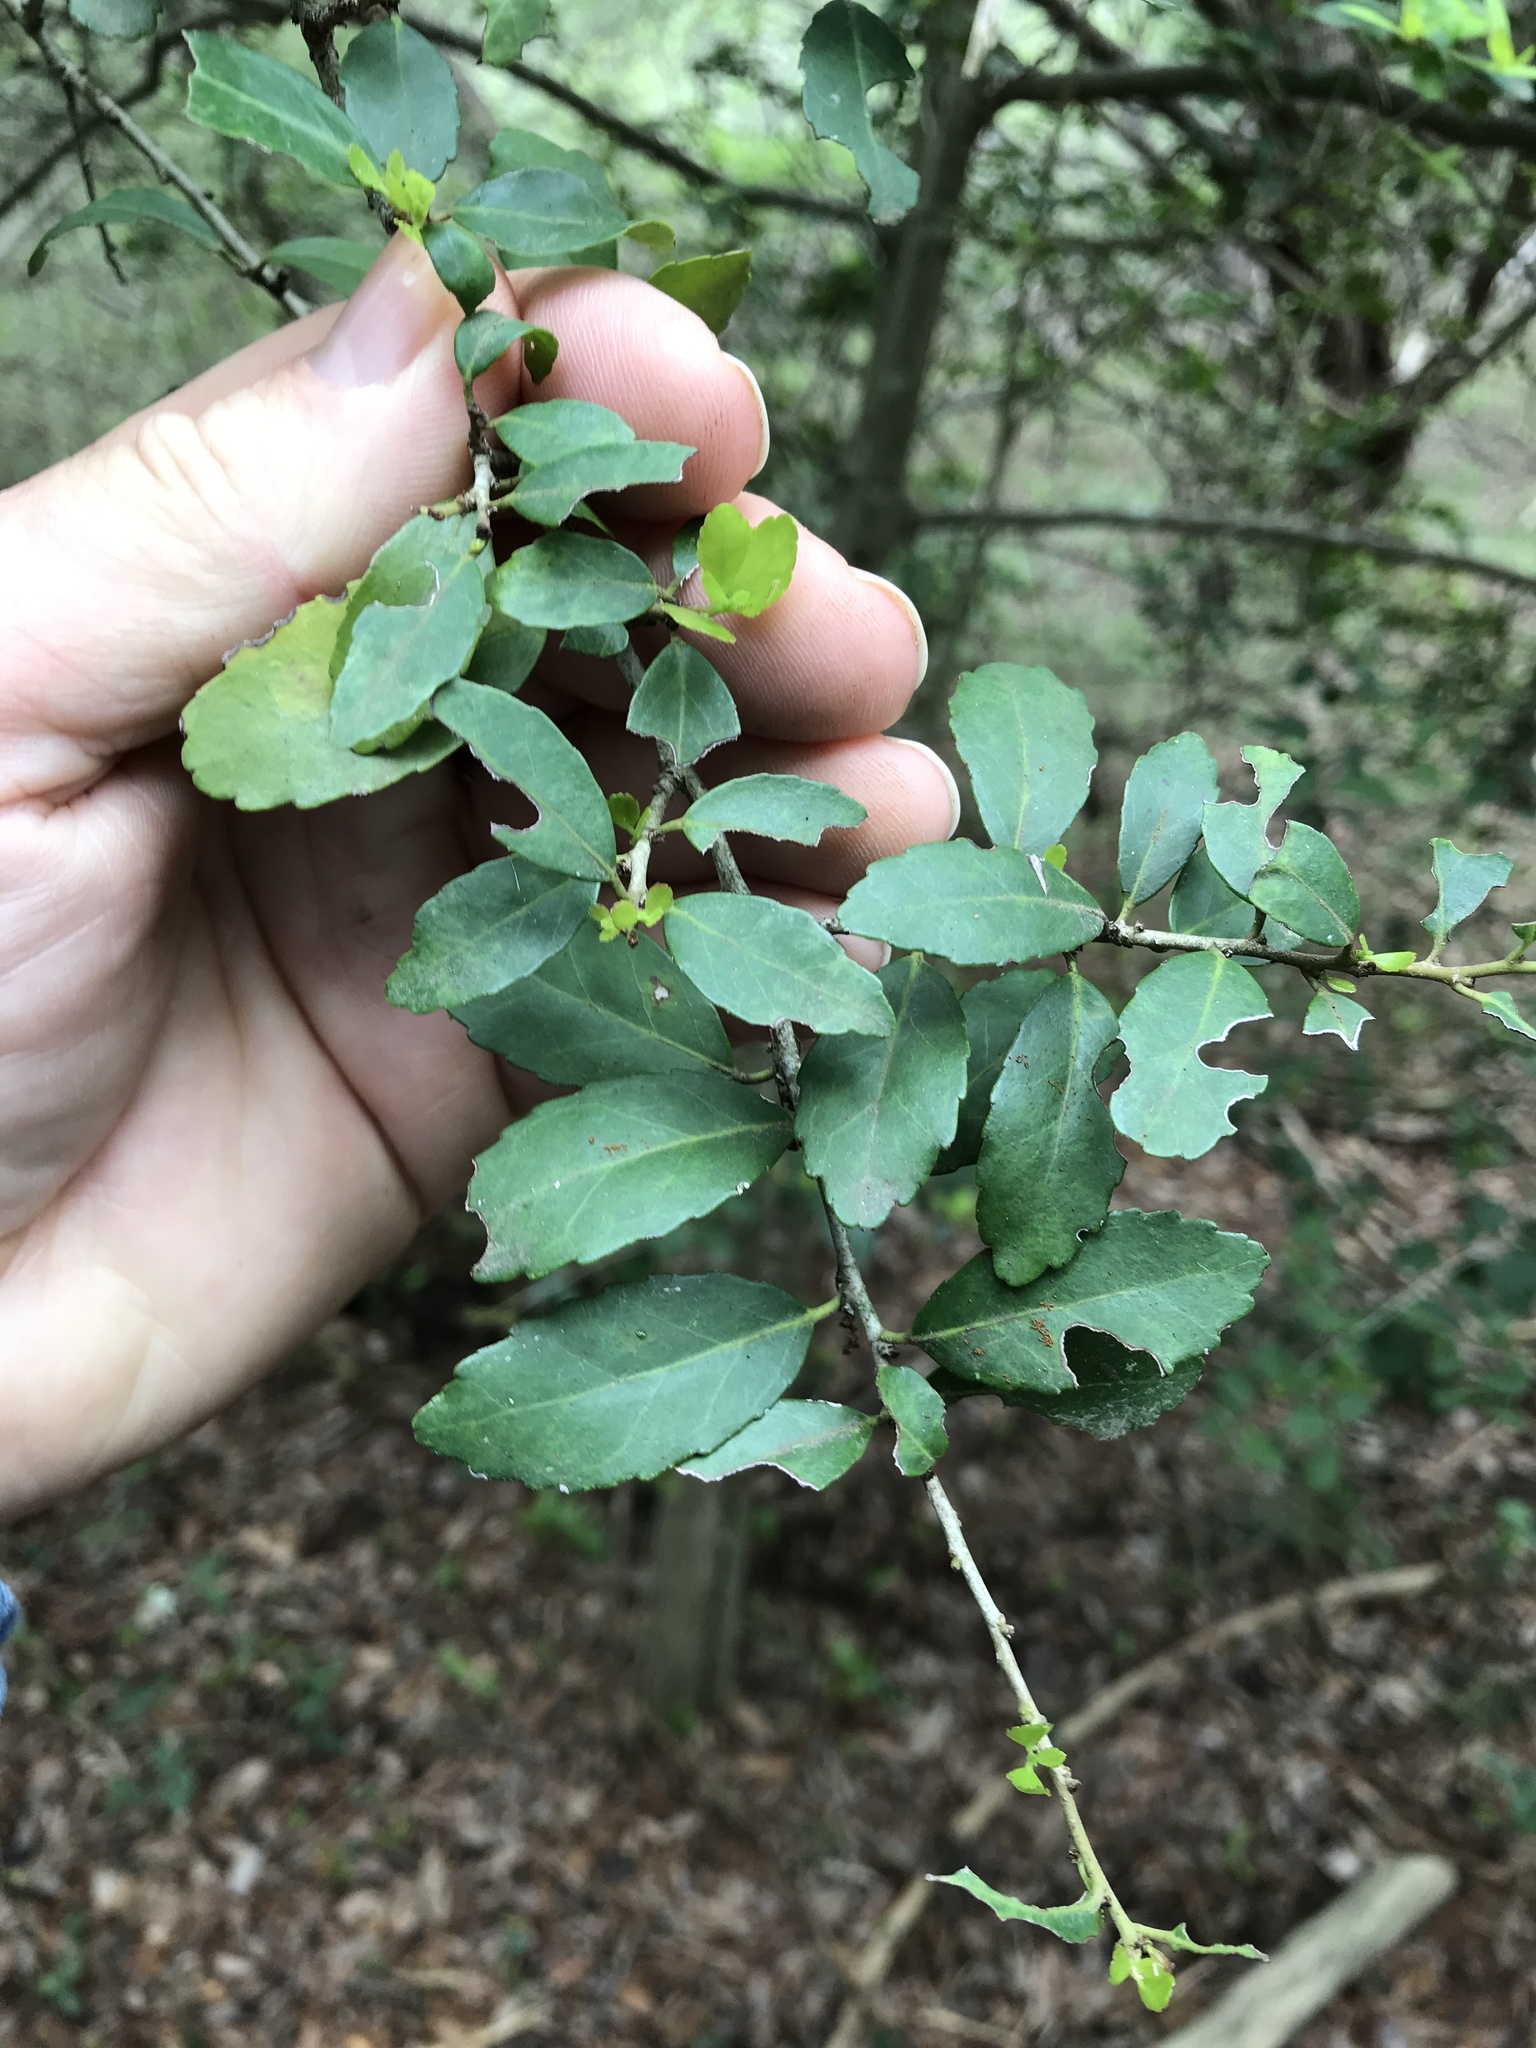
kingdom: Plantae
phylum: Tracheophyta
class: Magnoliopsida
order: Aquifoliales
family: Aquifoliaceae
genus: Ilex
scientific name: Ilex vomitoria
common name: Yaupon holly
